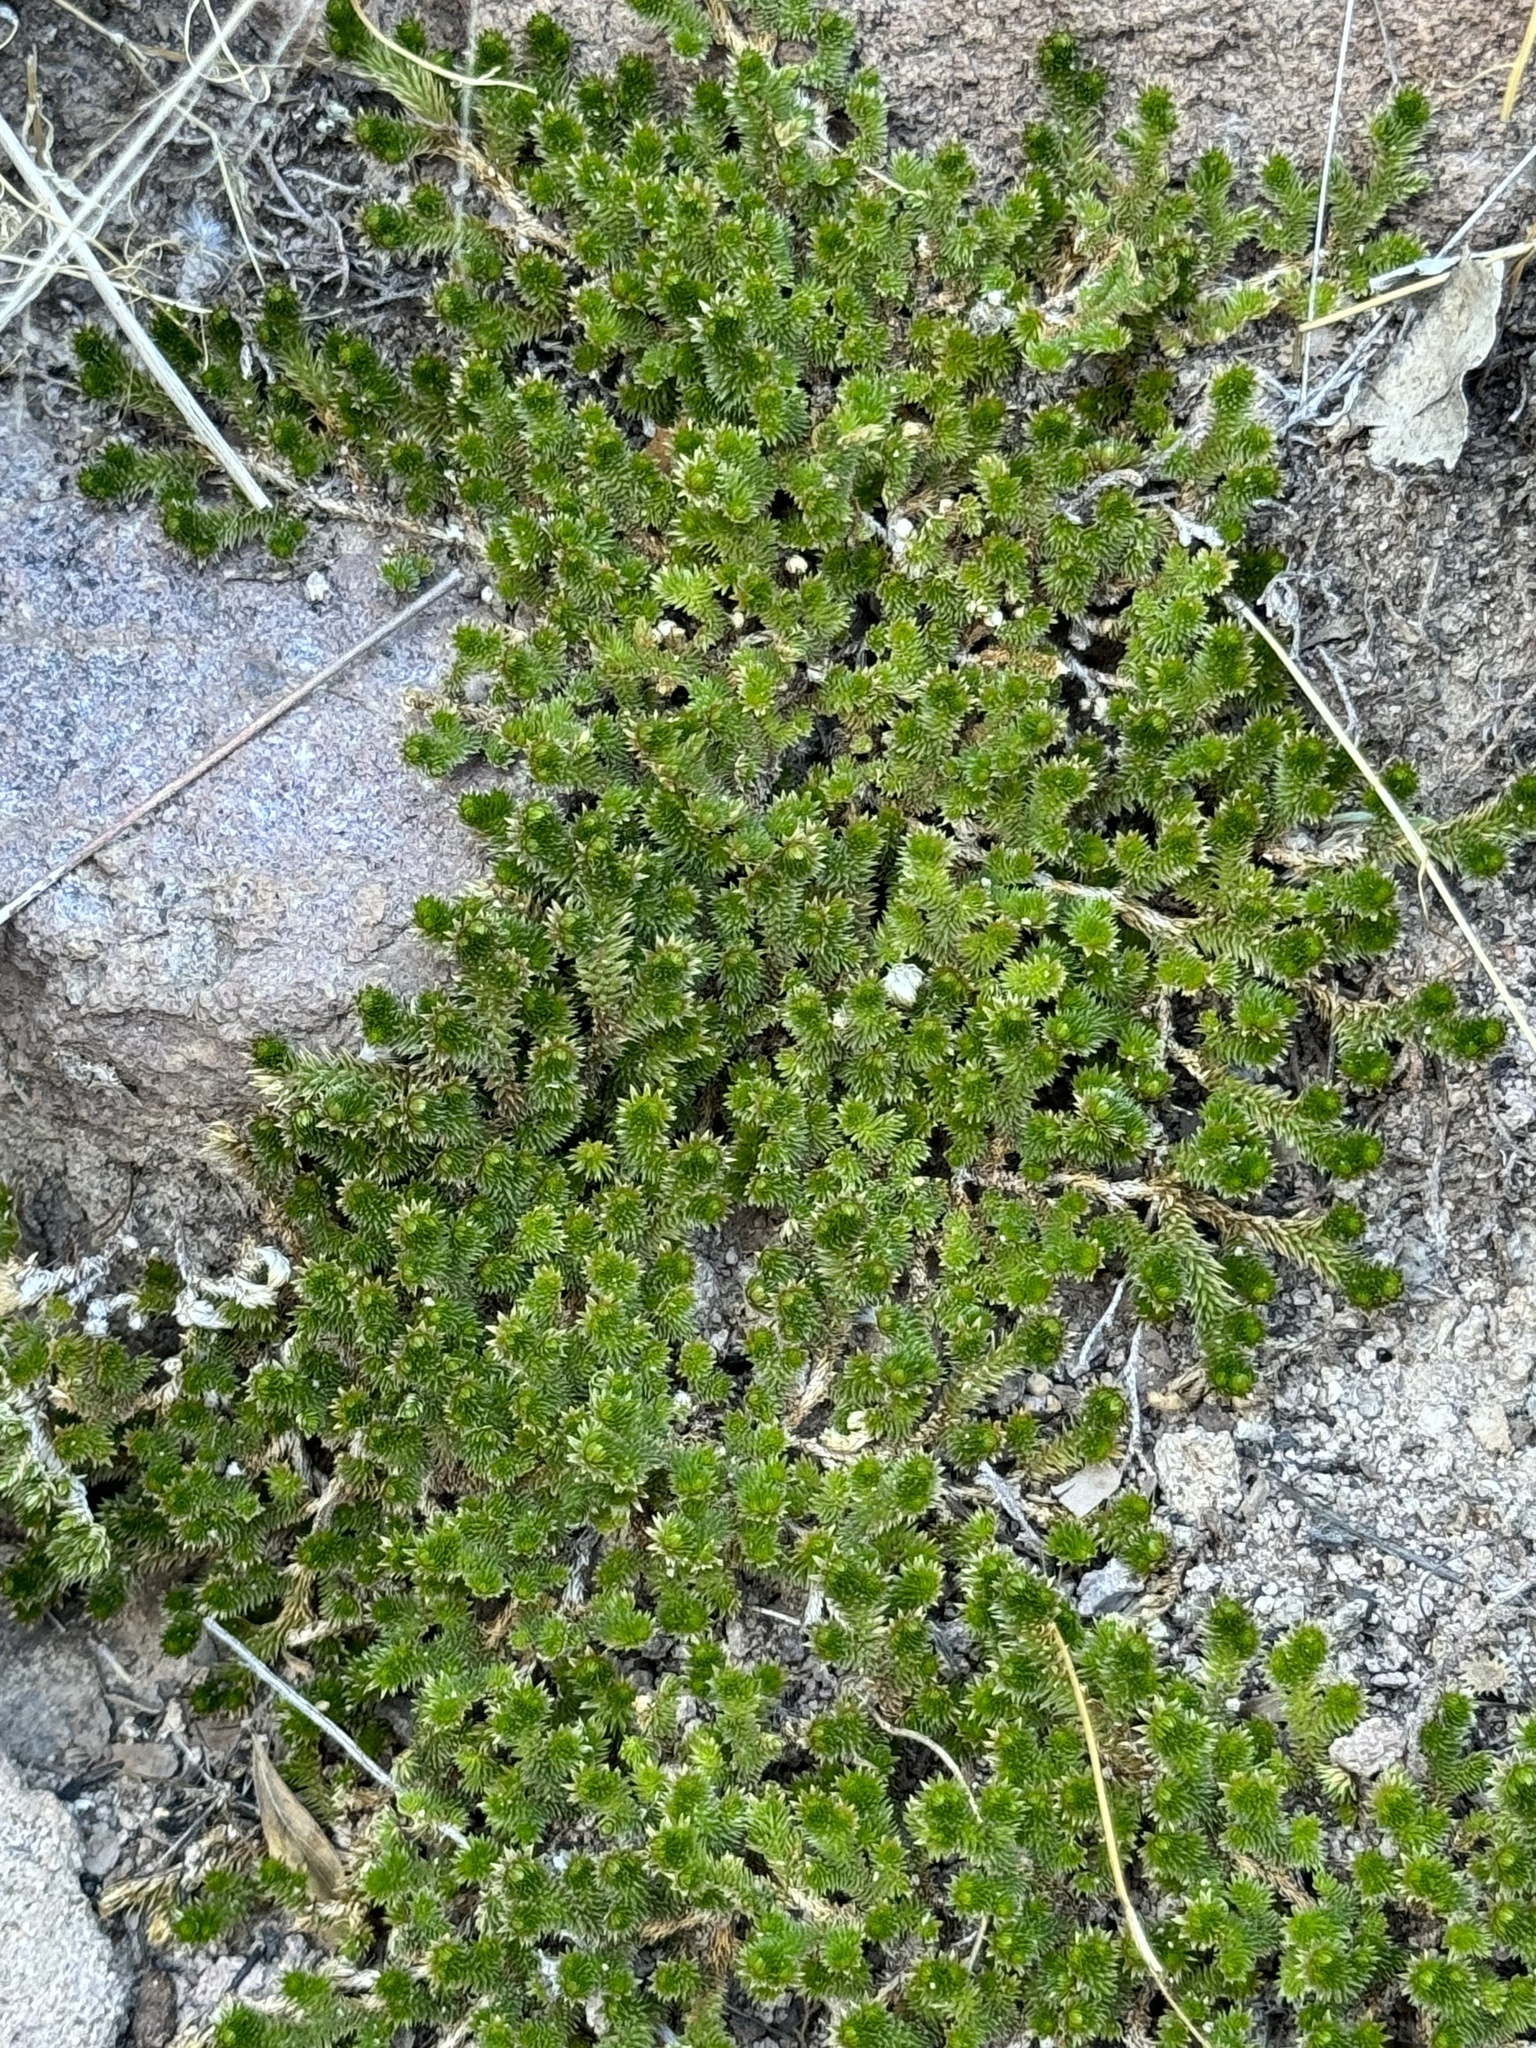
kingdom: Plantae
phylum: Tracheophyta
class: Lycopodiopsida
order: Selaginellales
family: Selaginellaceae
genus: Selaginella
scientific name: Selaginella arizonica
